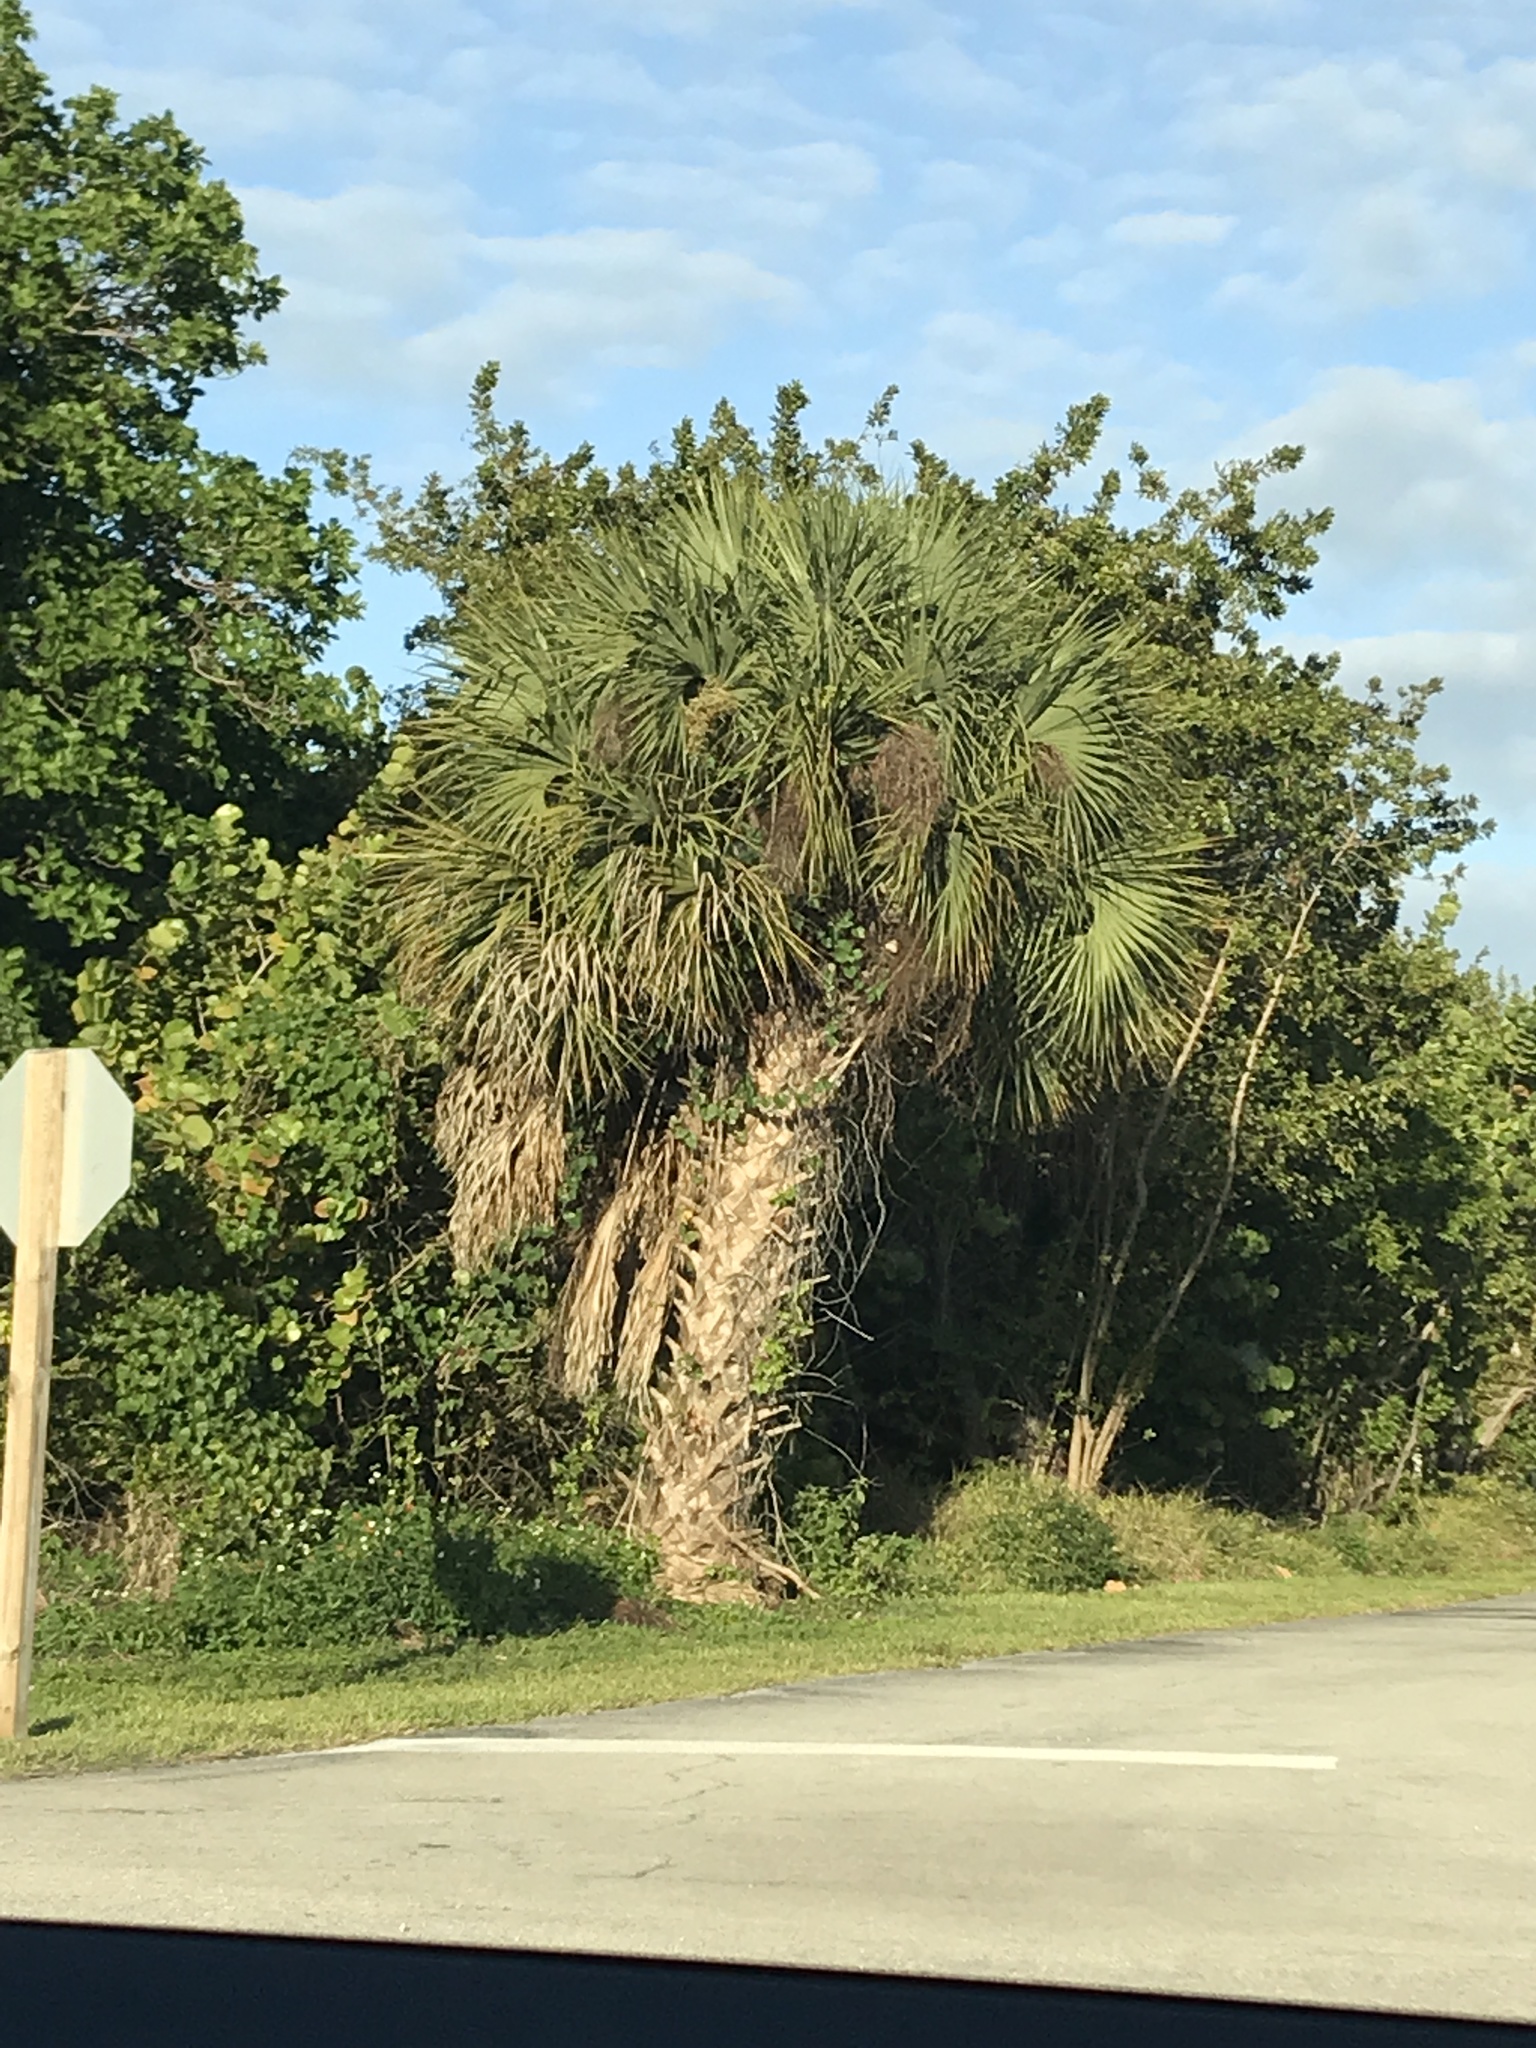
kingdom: Plantae
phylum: Tracheophyta
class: Liliopsida
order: Arecales
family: Arecaceae
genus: Sabal
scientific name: Sabal palmetto
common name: Blue palmetto
